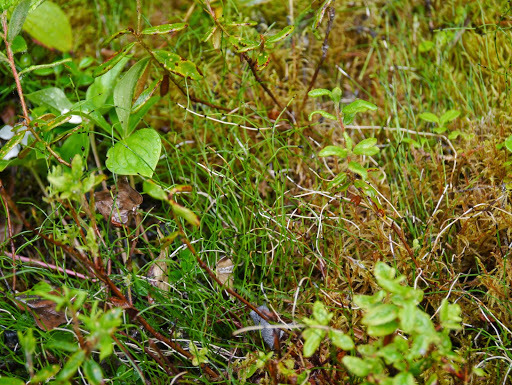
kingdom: Plantae
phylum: Tracheophyta
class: Polypodiopsida
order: Equisetales
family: Equisetaceae
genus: Equisetum
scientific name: Equisetum scirpoides
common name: Delicate horsetail
